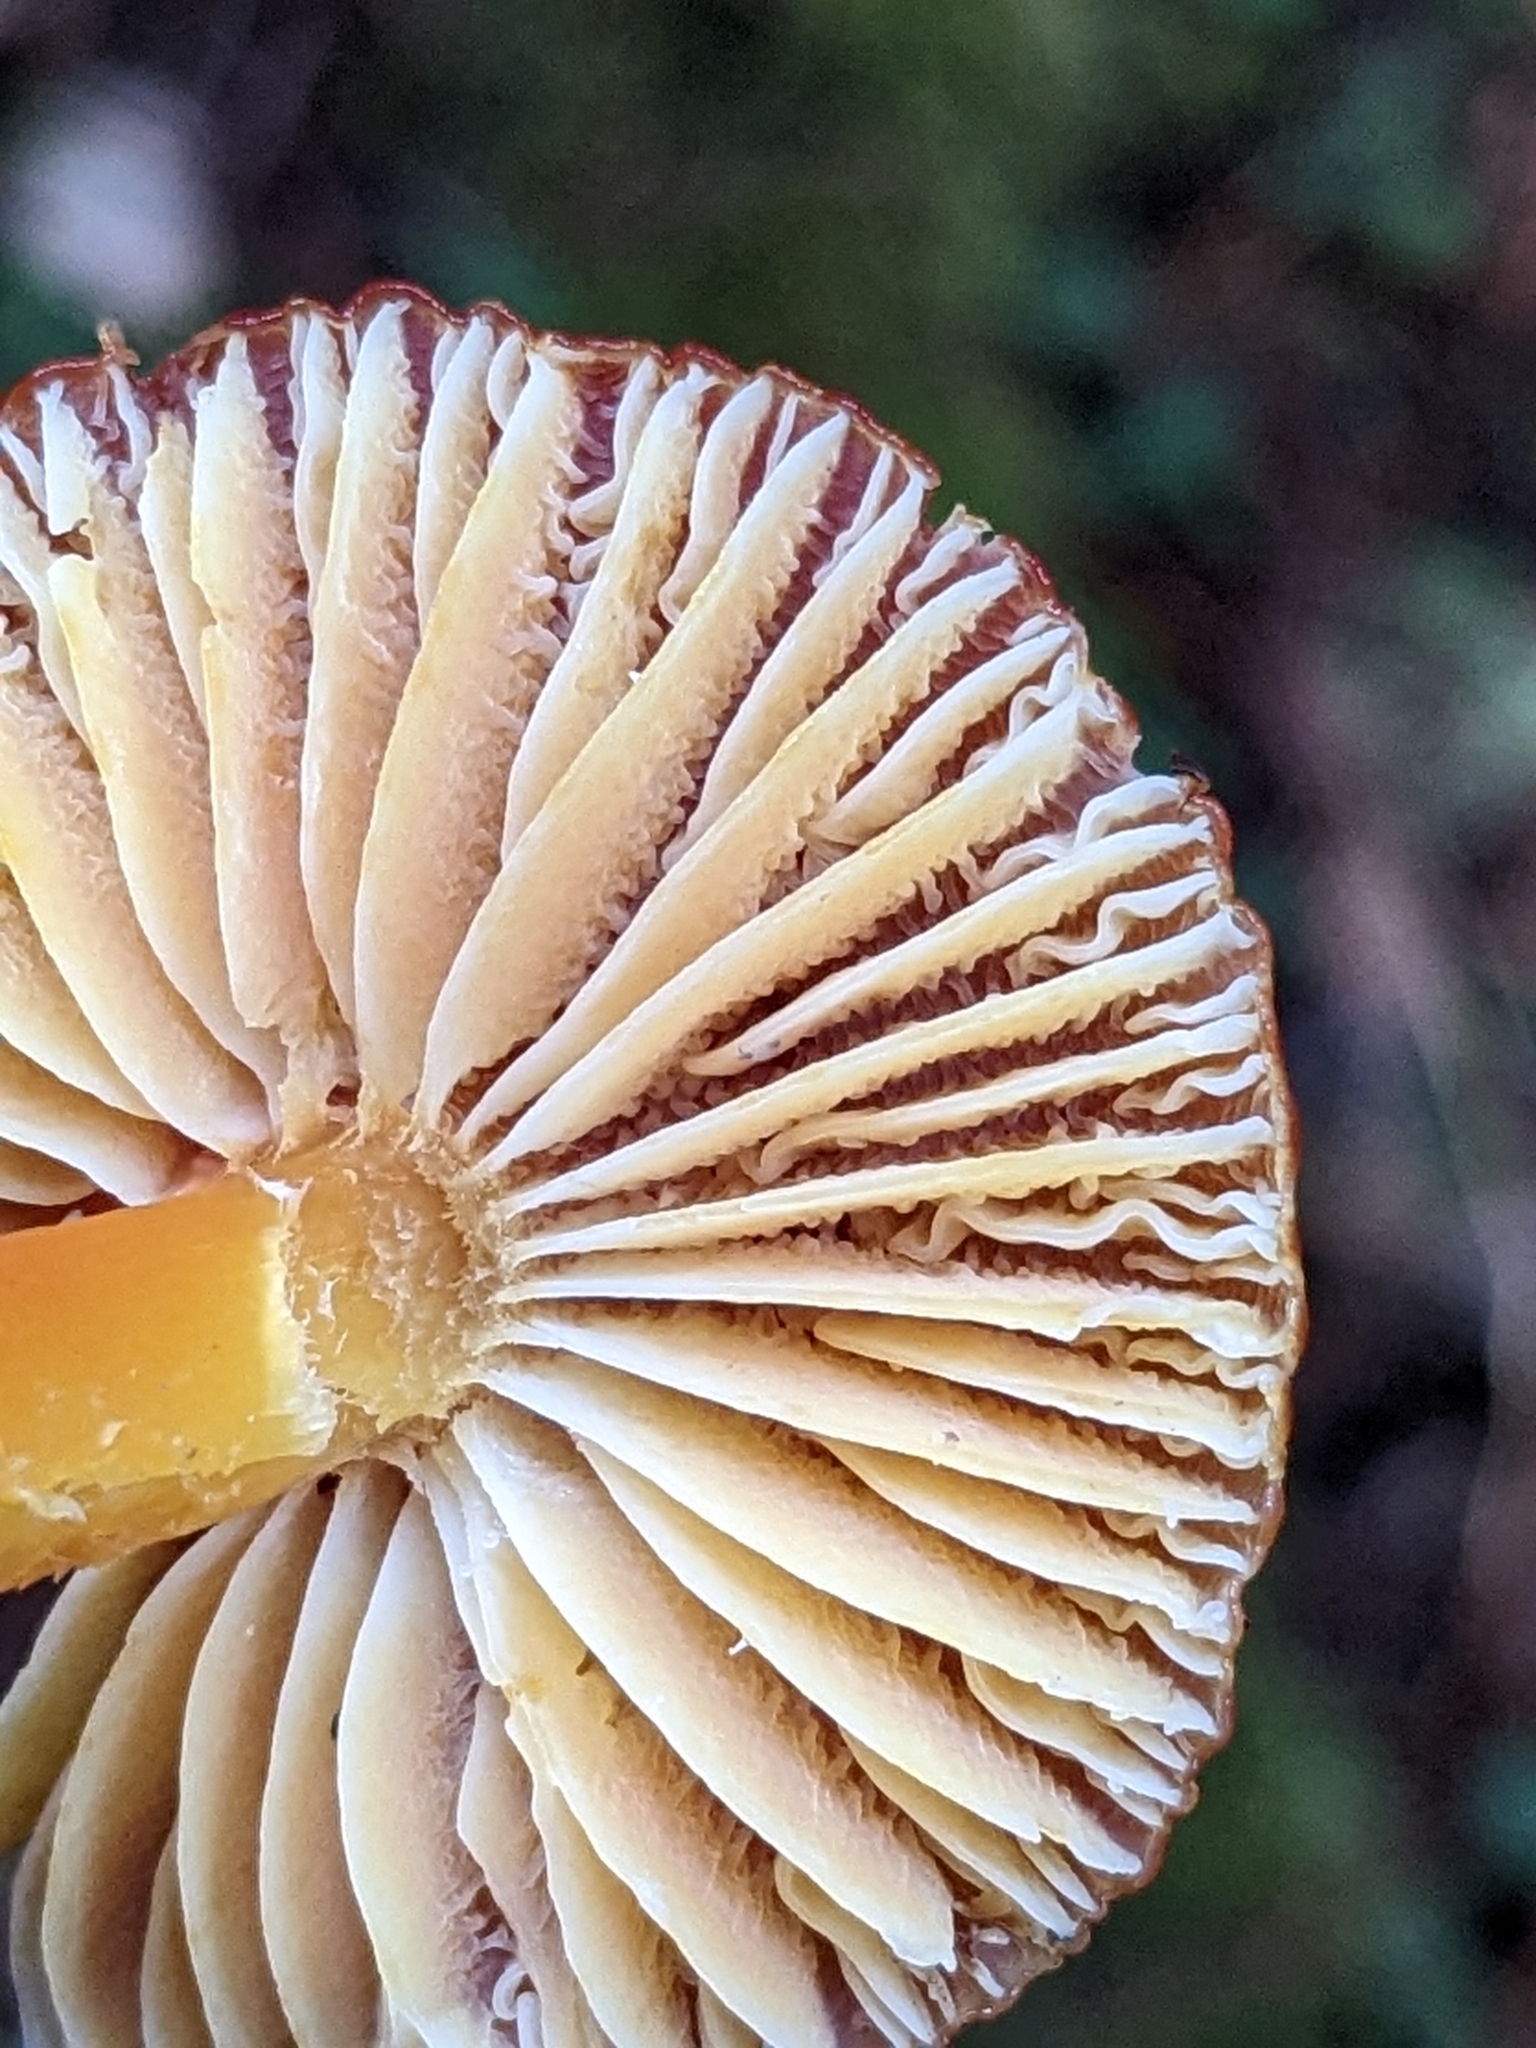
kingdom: Fungi
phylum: Basidiomycota
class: Agaricomycetes
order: Agaricales
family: Hygrophoraceae
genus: Hygrocybe
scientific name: Hygrocybe reidii
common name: Honey waxcap
